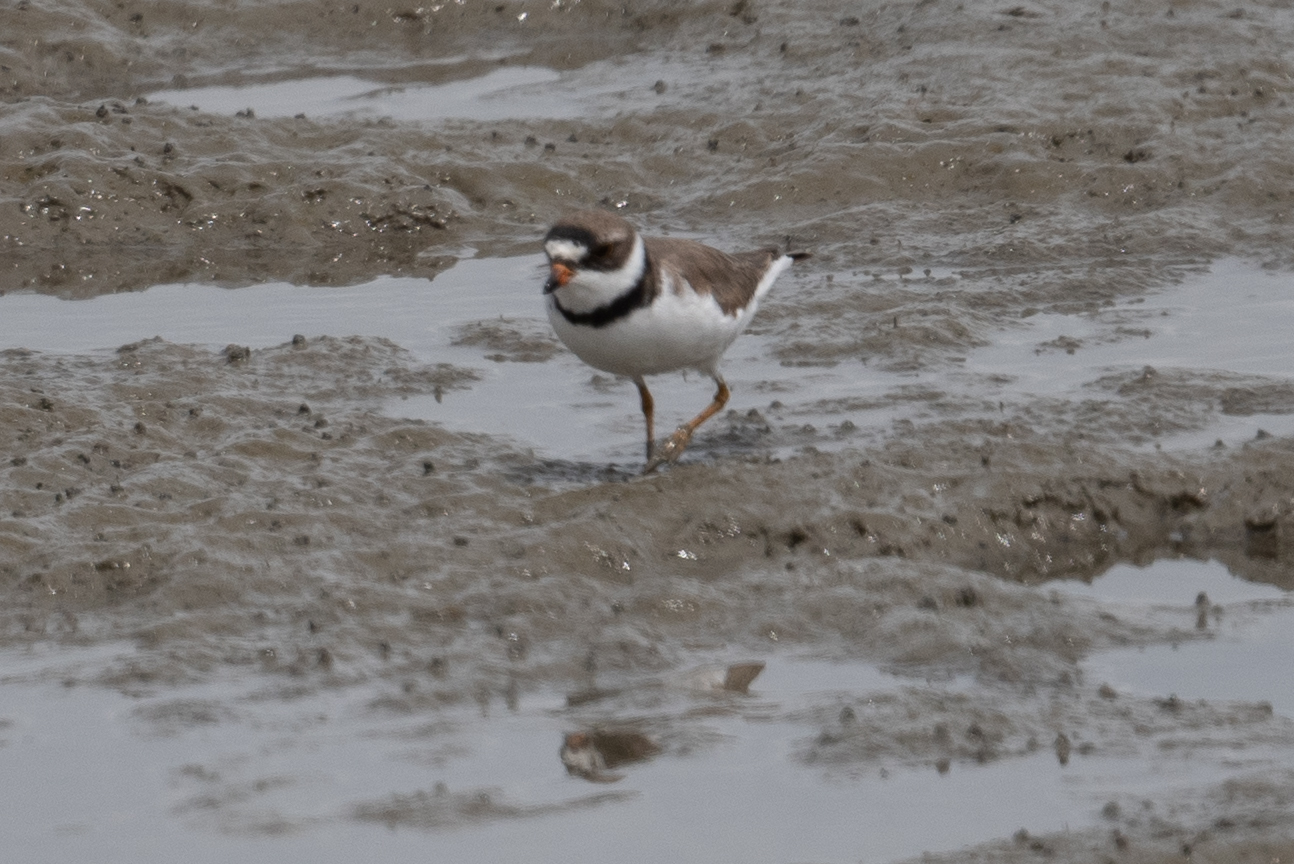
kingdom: Animalia
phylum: Chordata
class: Aves
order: Charadriiformes
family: Charadriidae
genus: Charadrius
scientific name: Charadrius semipalmatus
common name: Semipalmated plover
